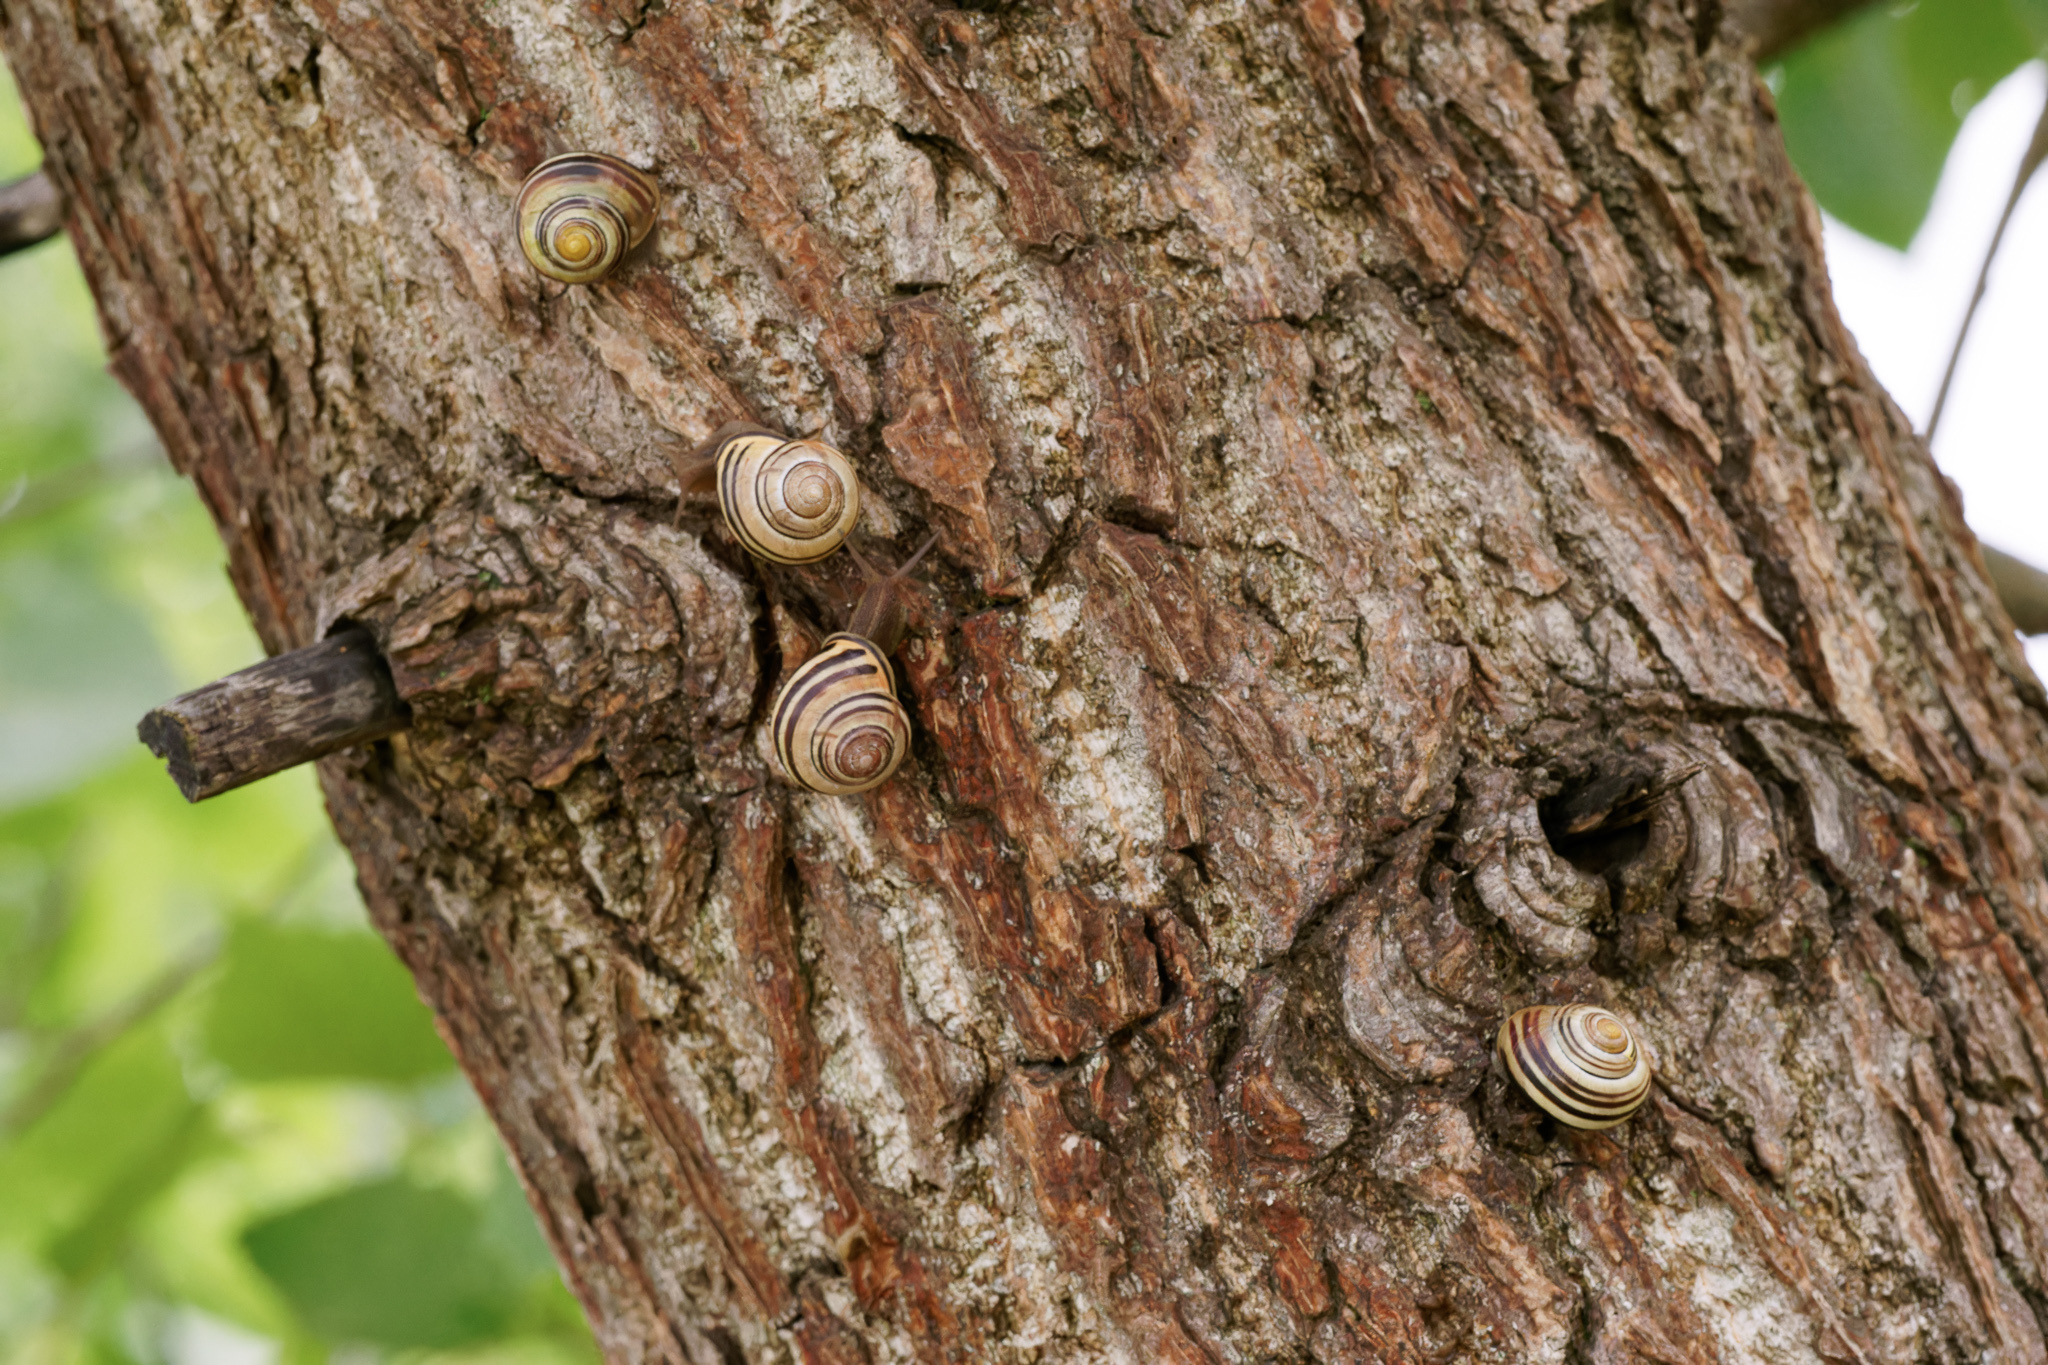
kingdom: Animalia
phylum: Mollusca
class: Gastropoda
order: Stylommatophora
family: Helicidae
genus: Cepaea
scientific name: Cepaea nemoralis
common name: Grovesnail
